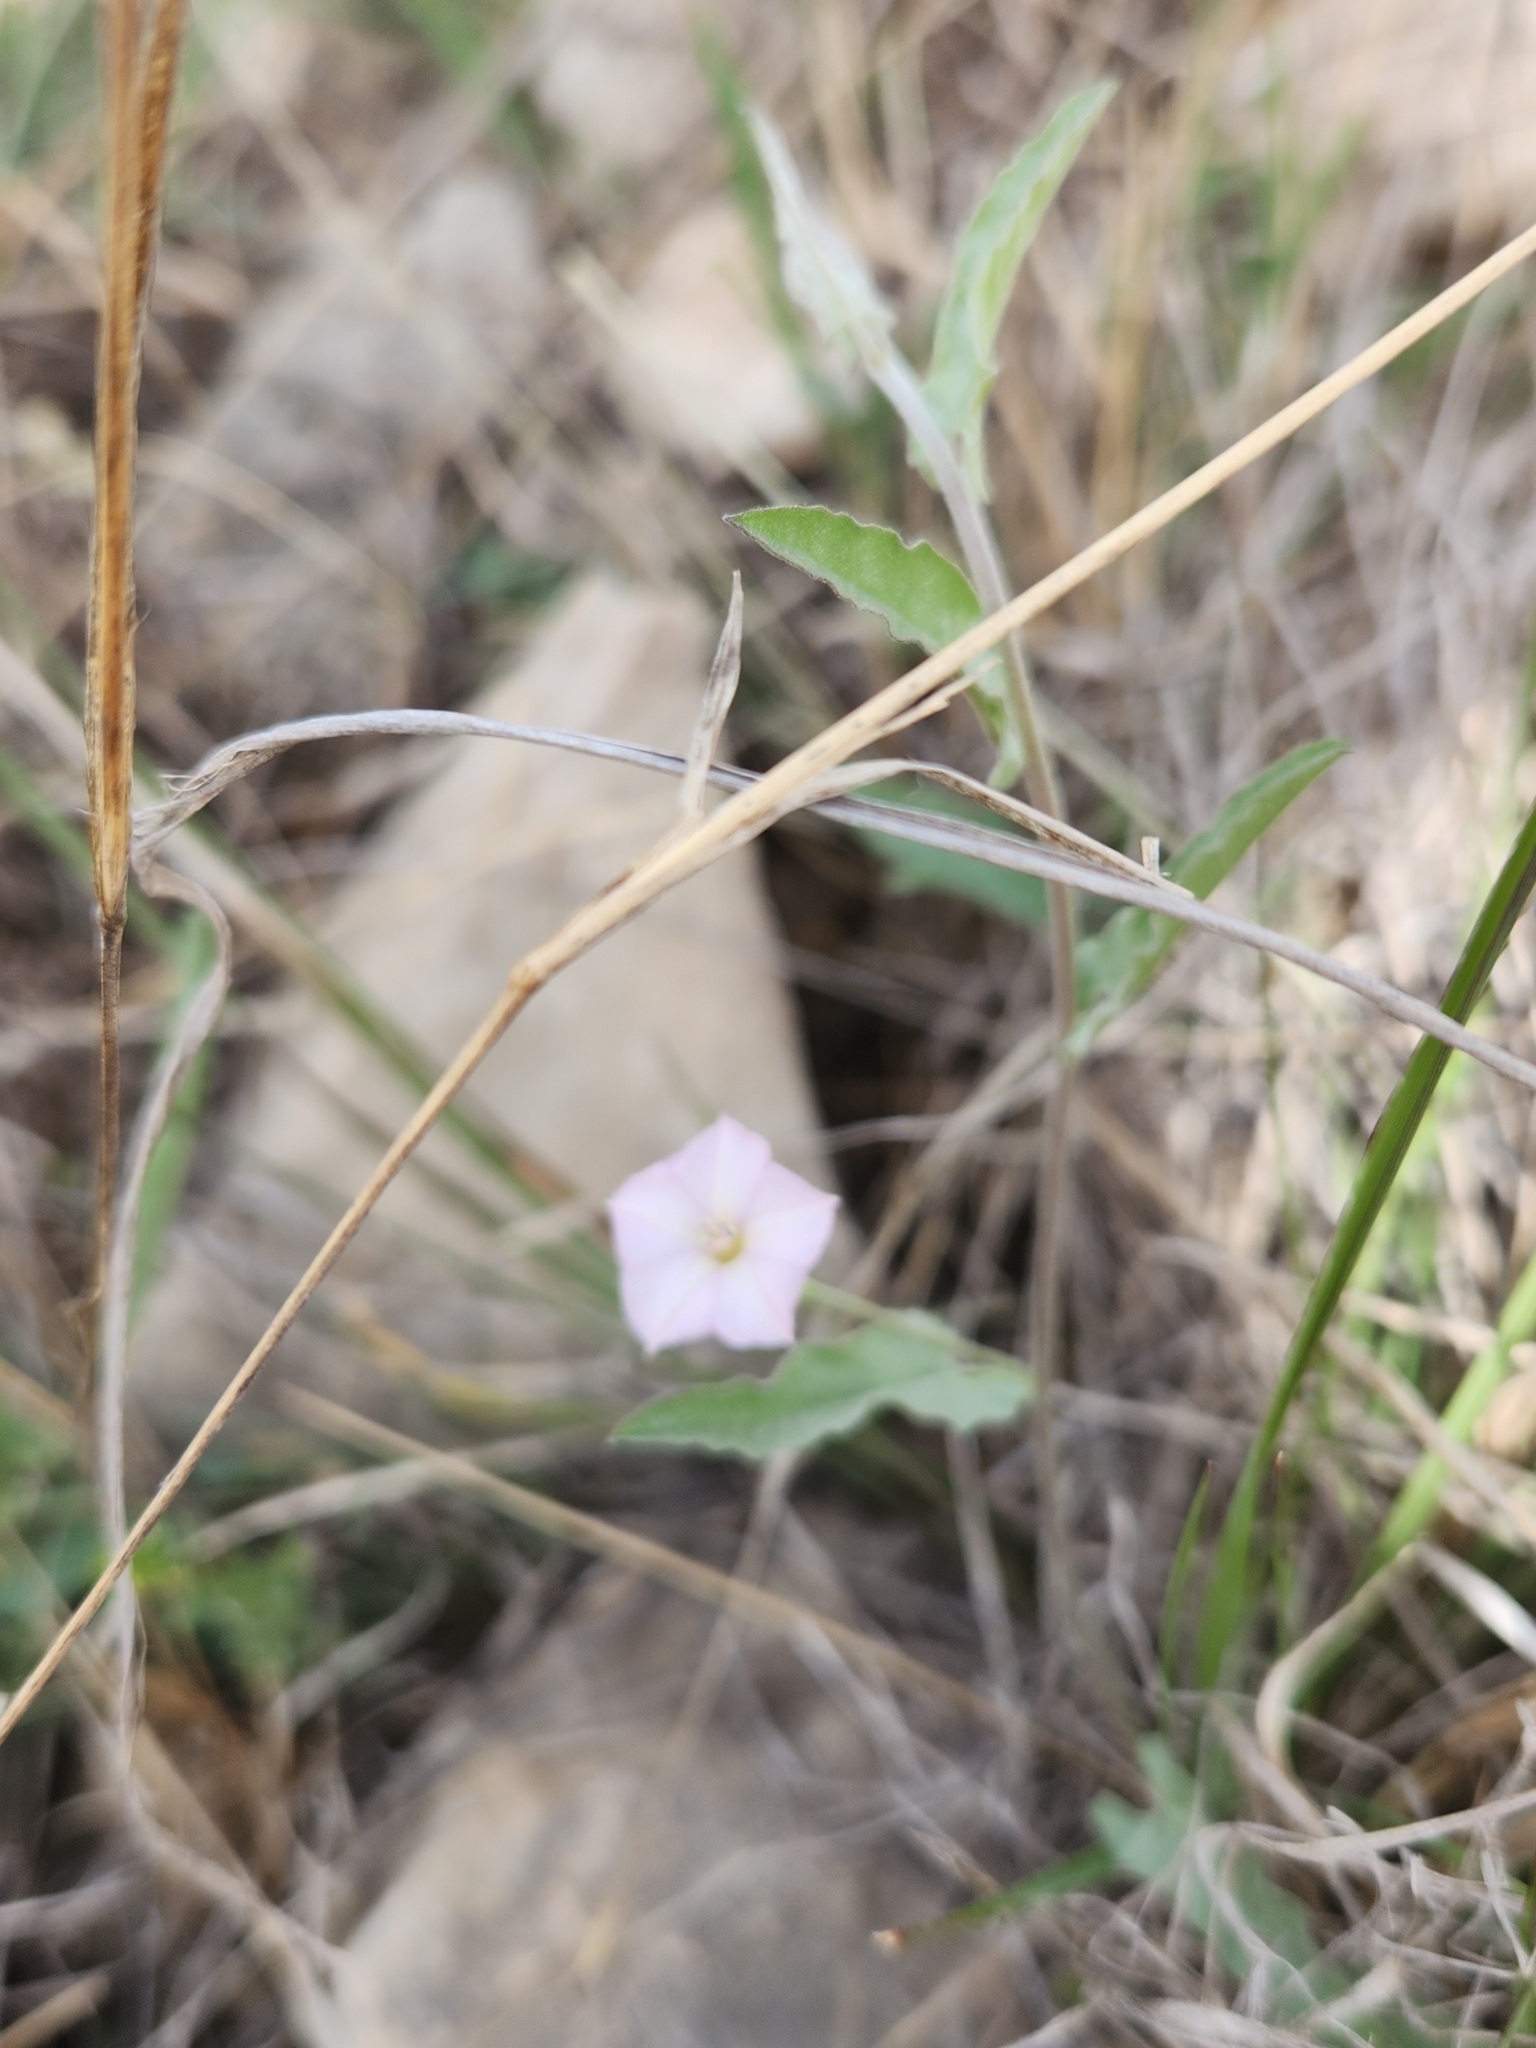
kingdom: Plantae
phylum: Tracheophyta
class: Magnoliopsida
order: Solanales
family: Convolvulaceae
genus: Convolvulus
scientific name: Convolvulus equitans
